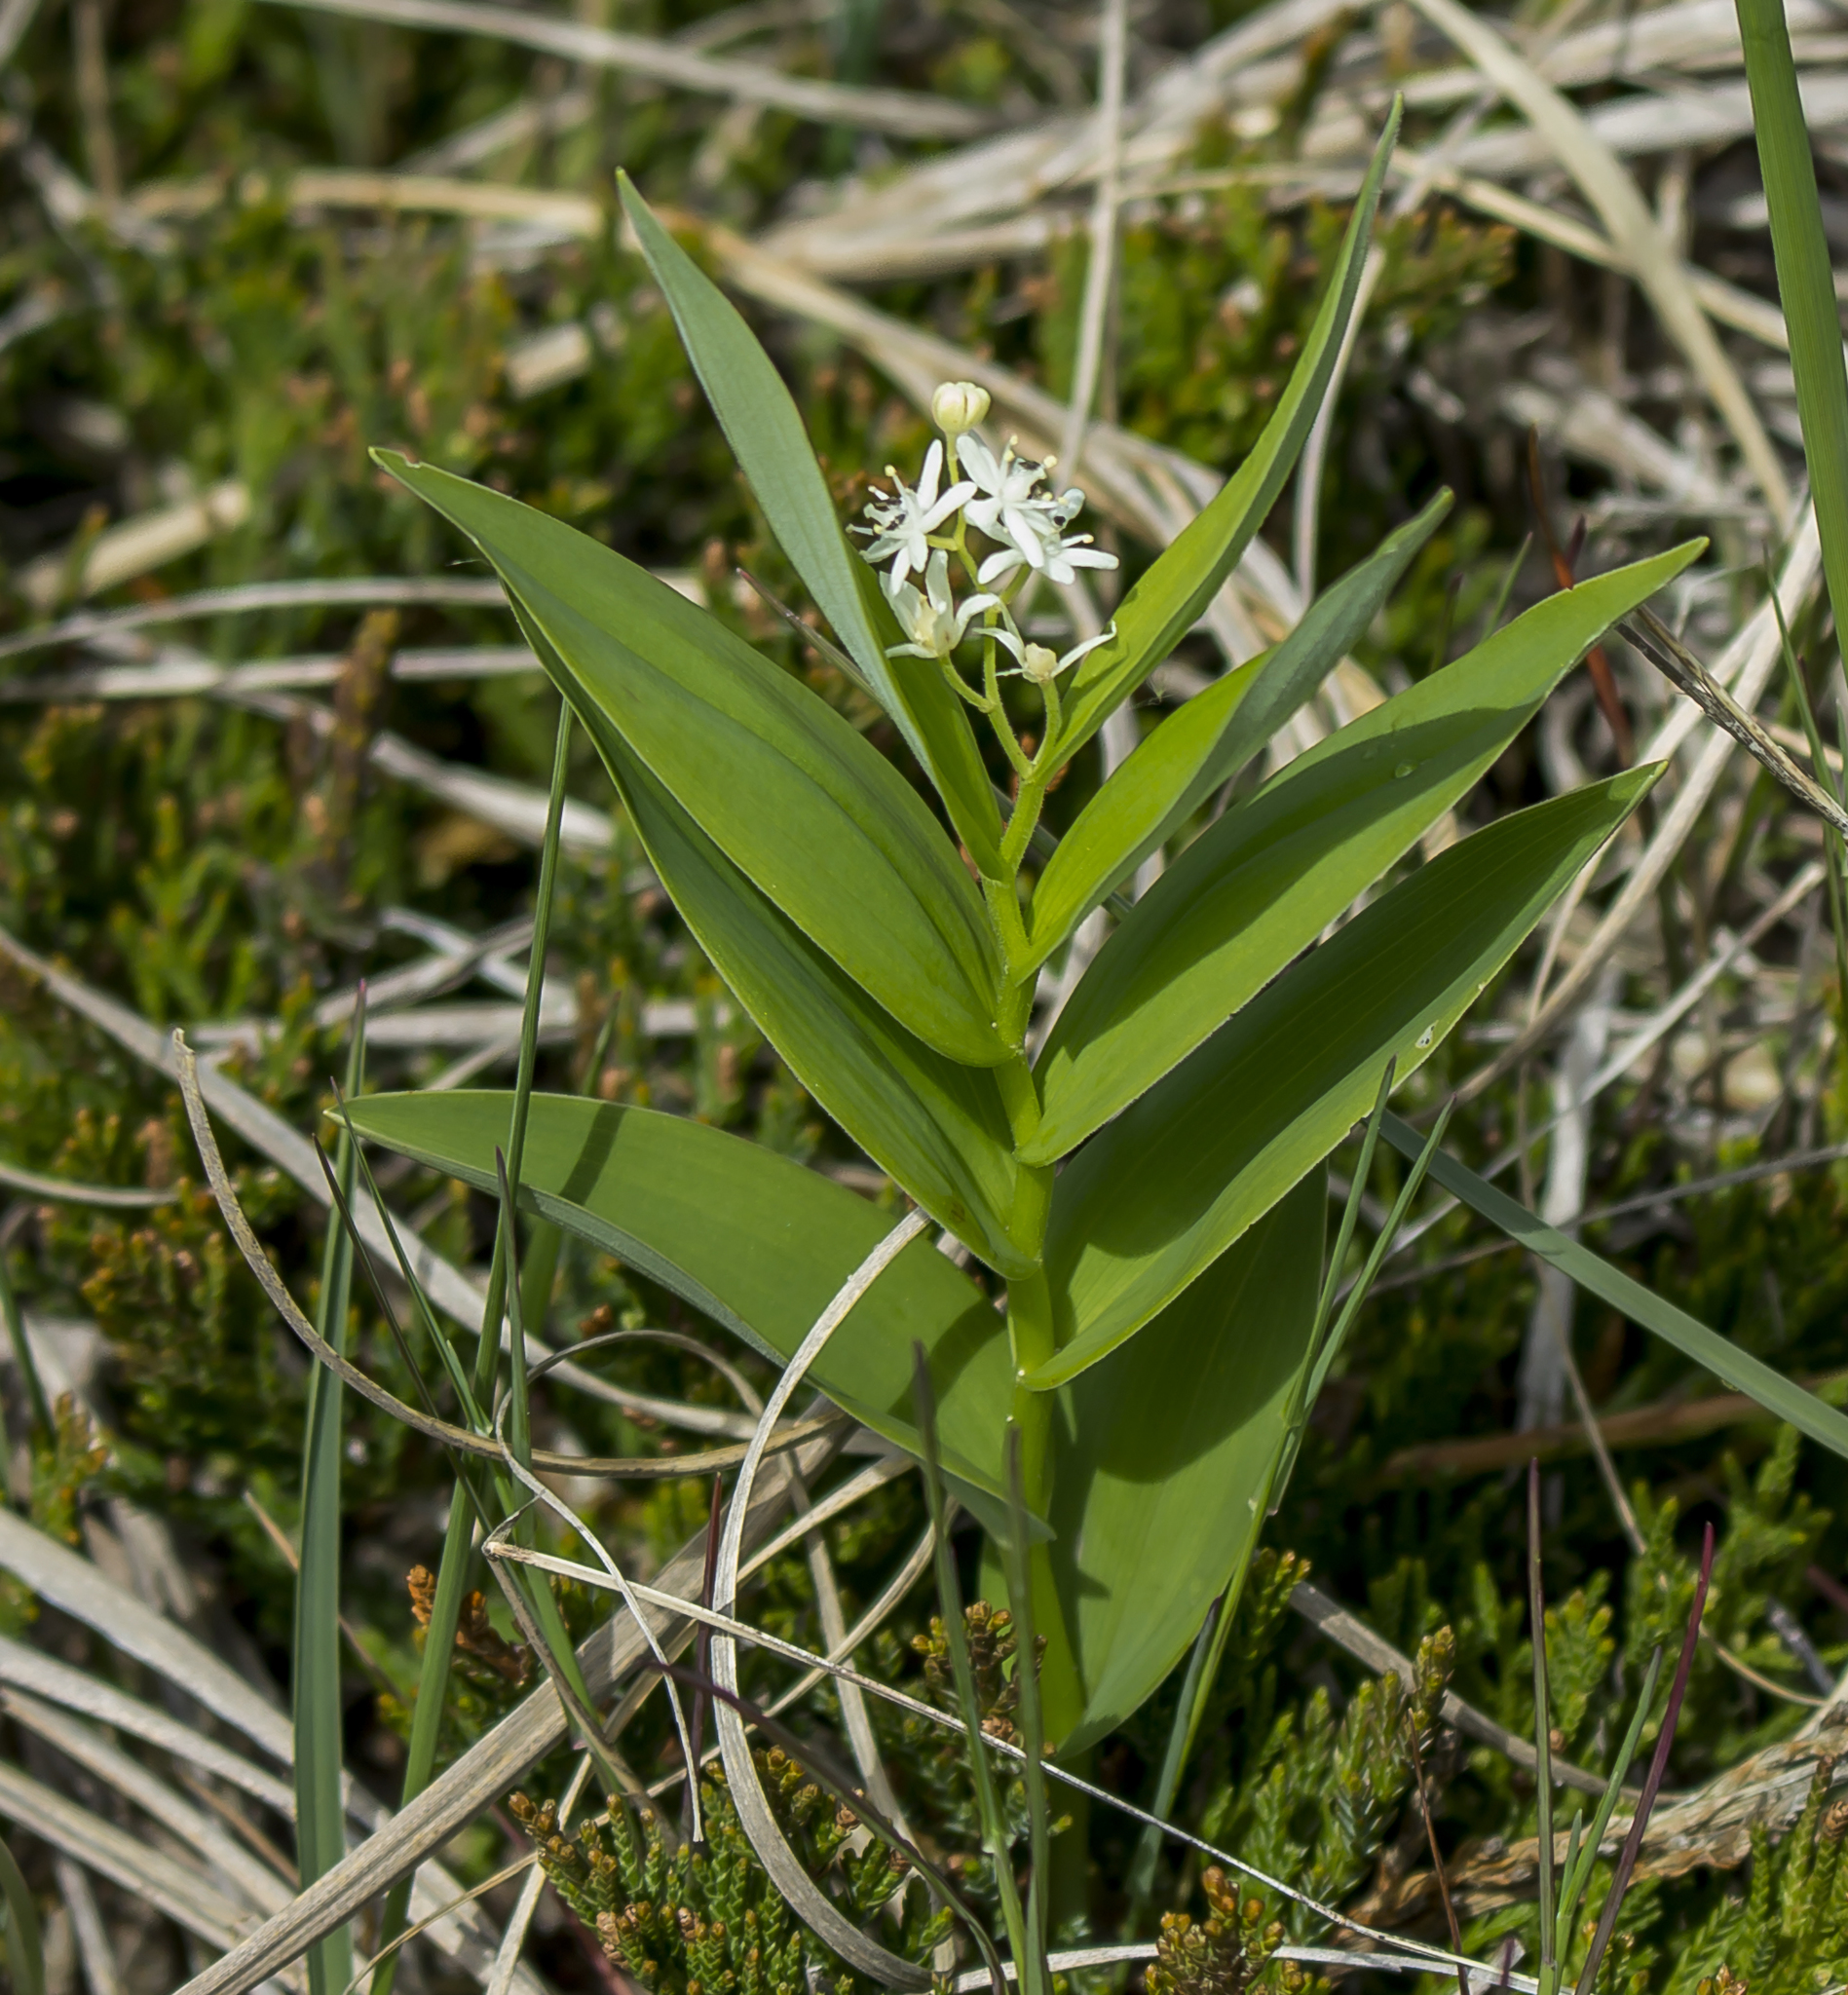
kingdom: Plantae
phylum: Tracheophyta
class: Liliopsida
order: Asparagales
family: Asparagaceae
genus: Maianthemum
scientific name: Maianthemum stellatum
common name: Little false solomon's seal
